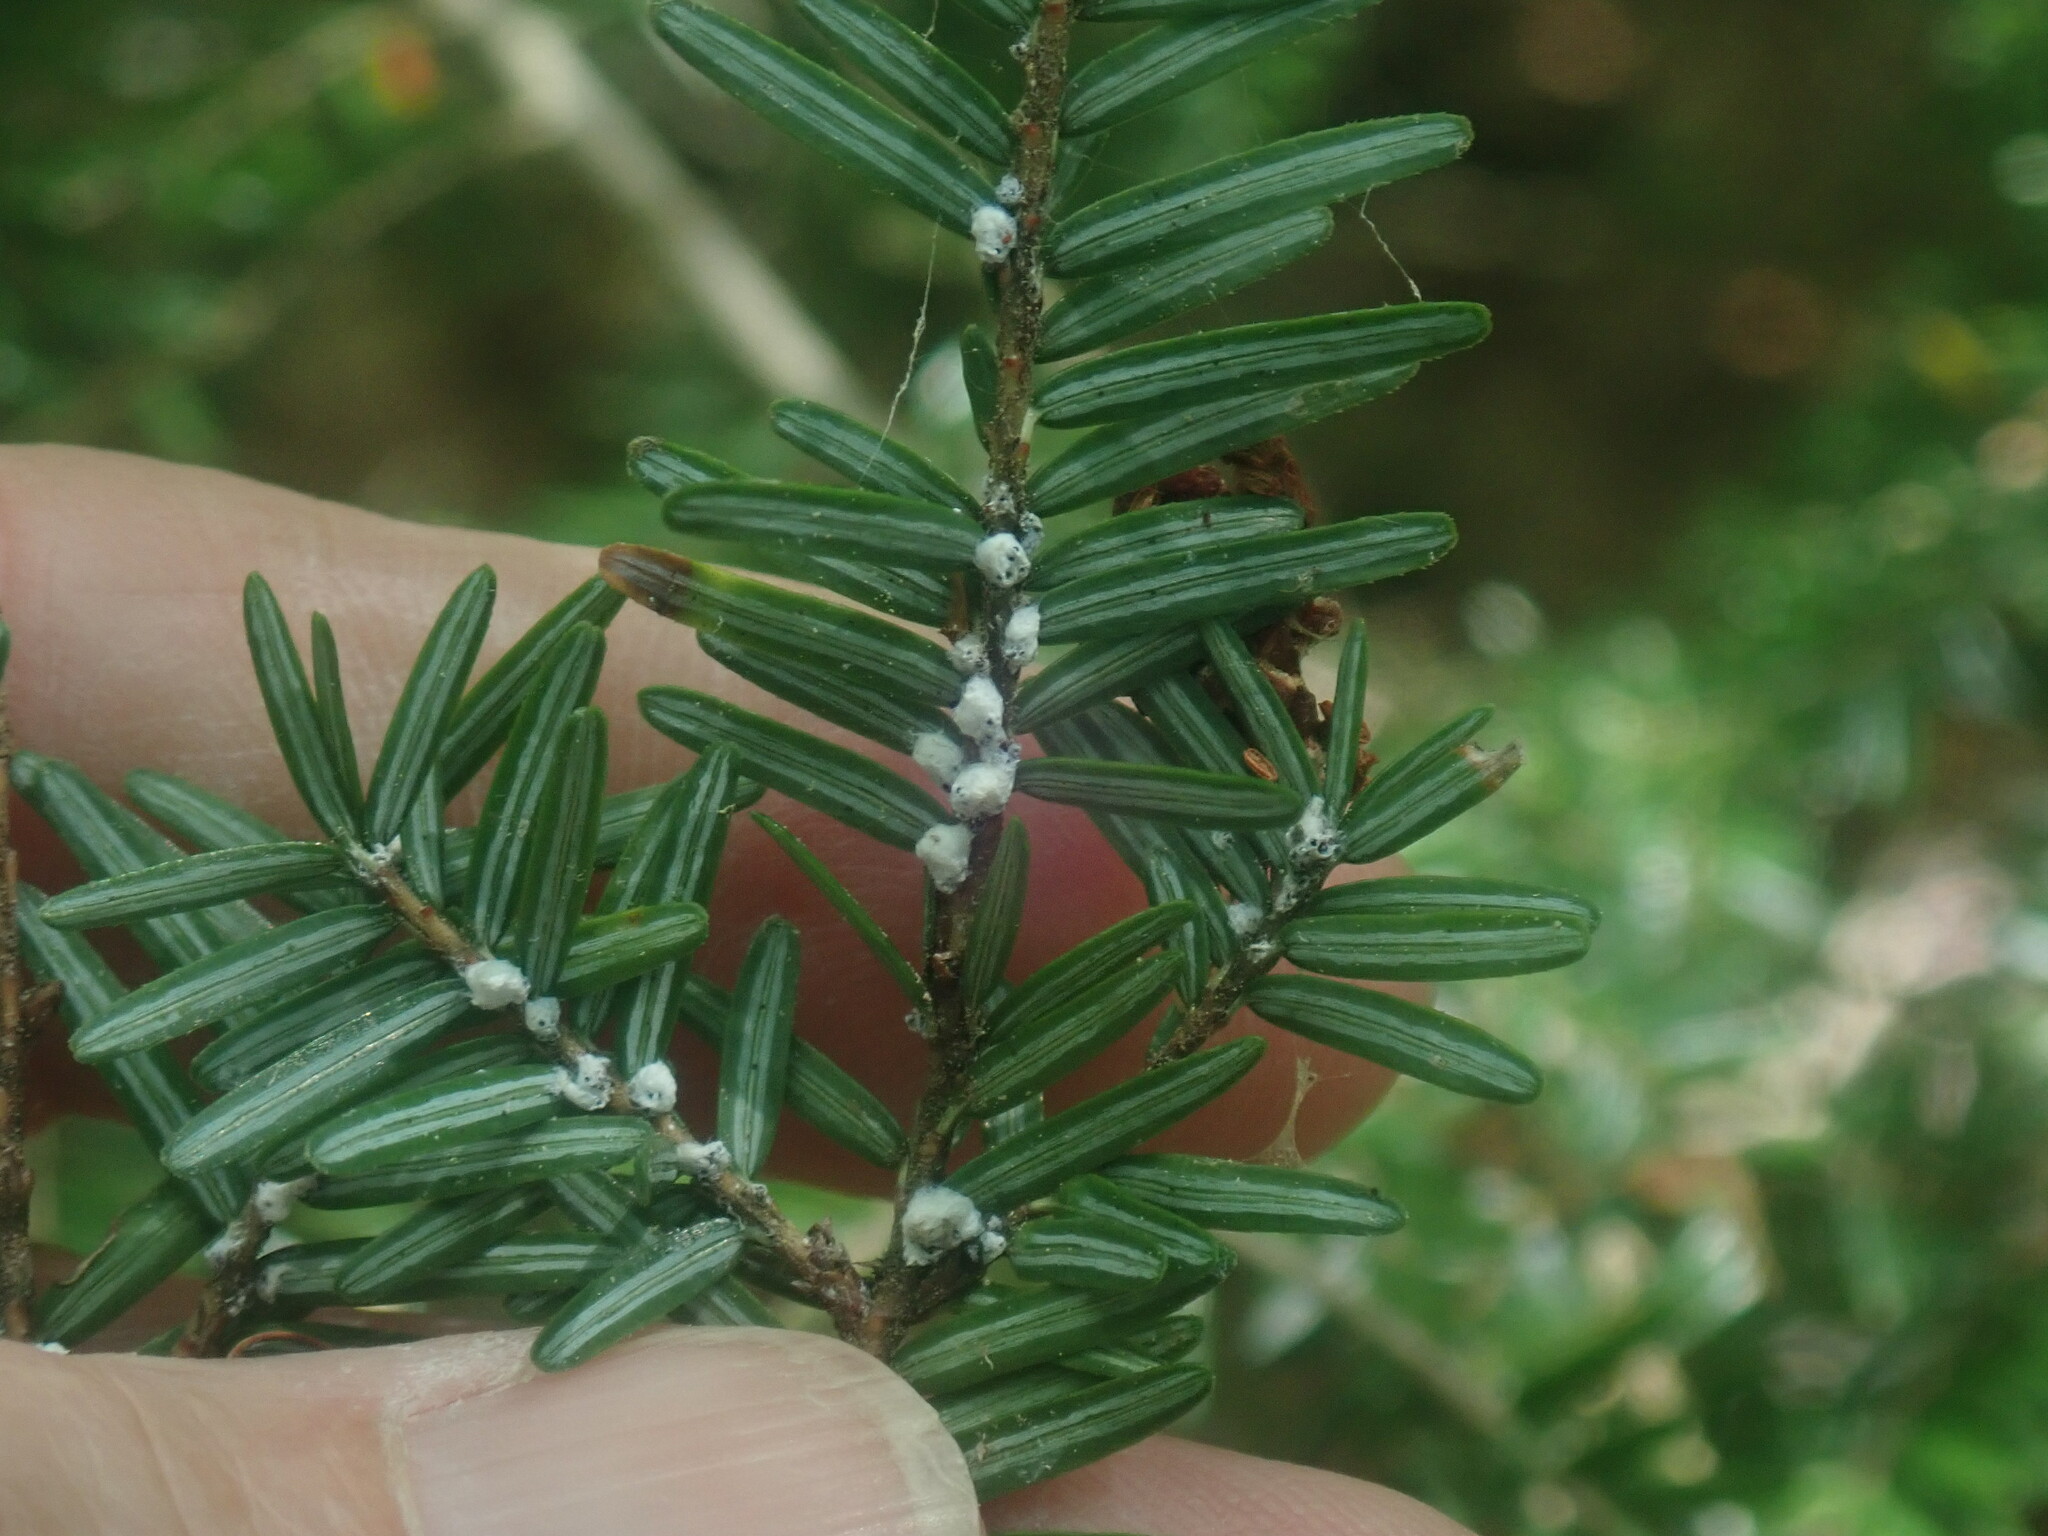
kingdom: Animalia
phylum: Arthropoda
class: Insecta
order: Hemiptera
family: Adelgidae
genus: Adelges
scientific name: Adelges tsugae
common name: Hemlock woolly adelgid
